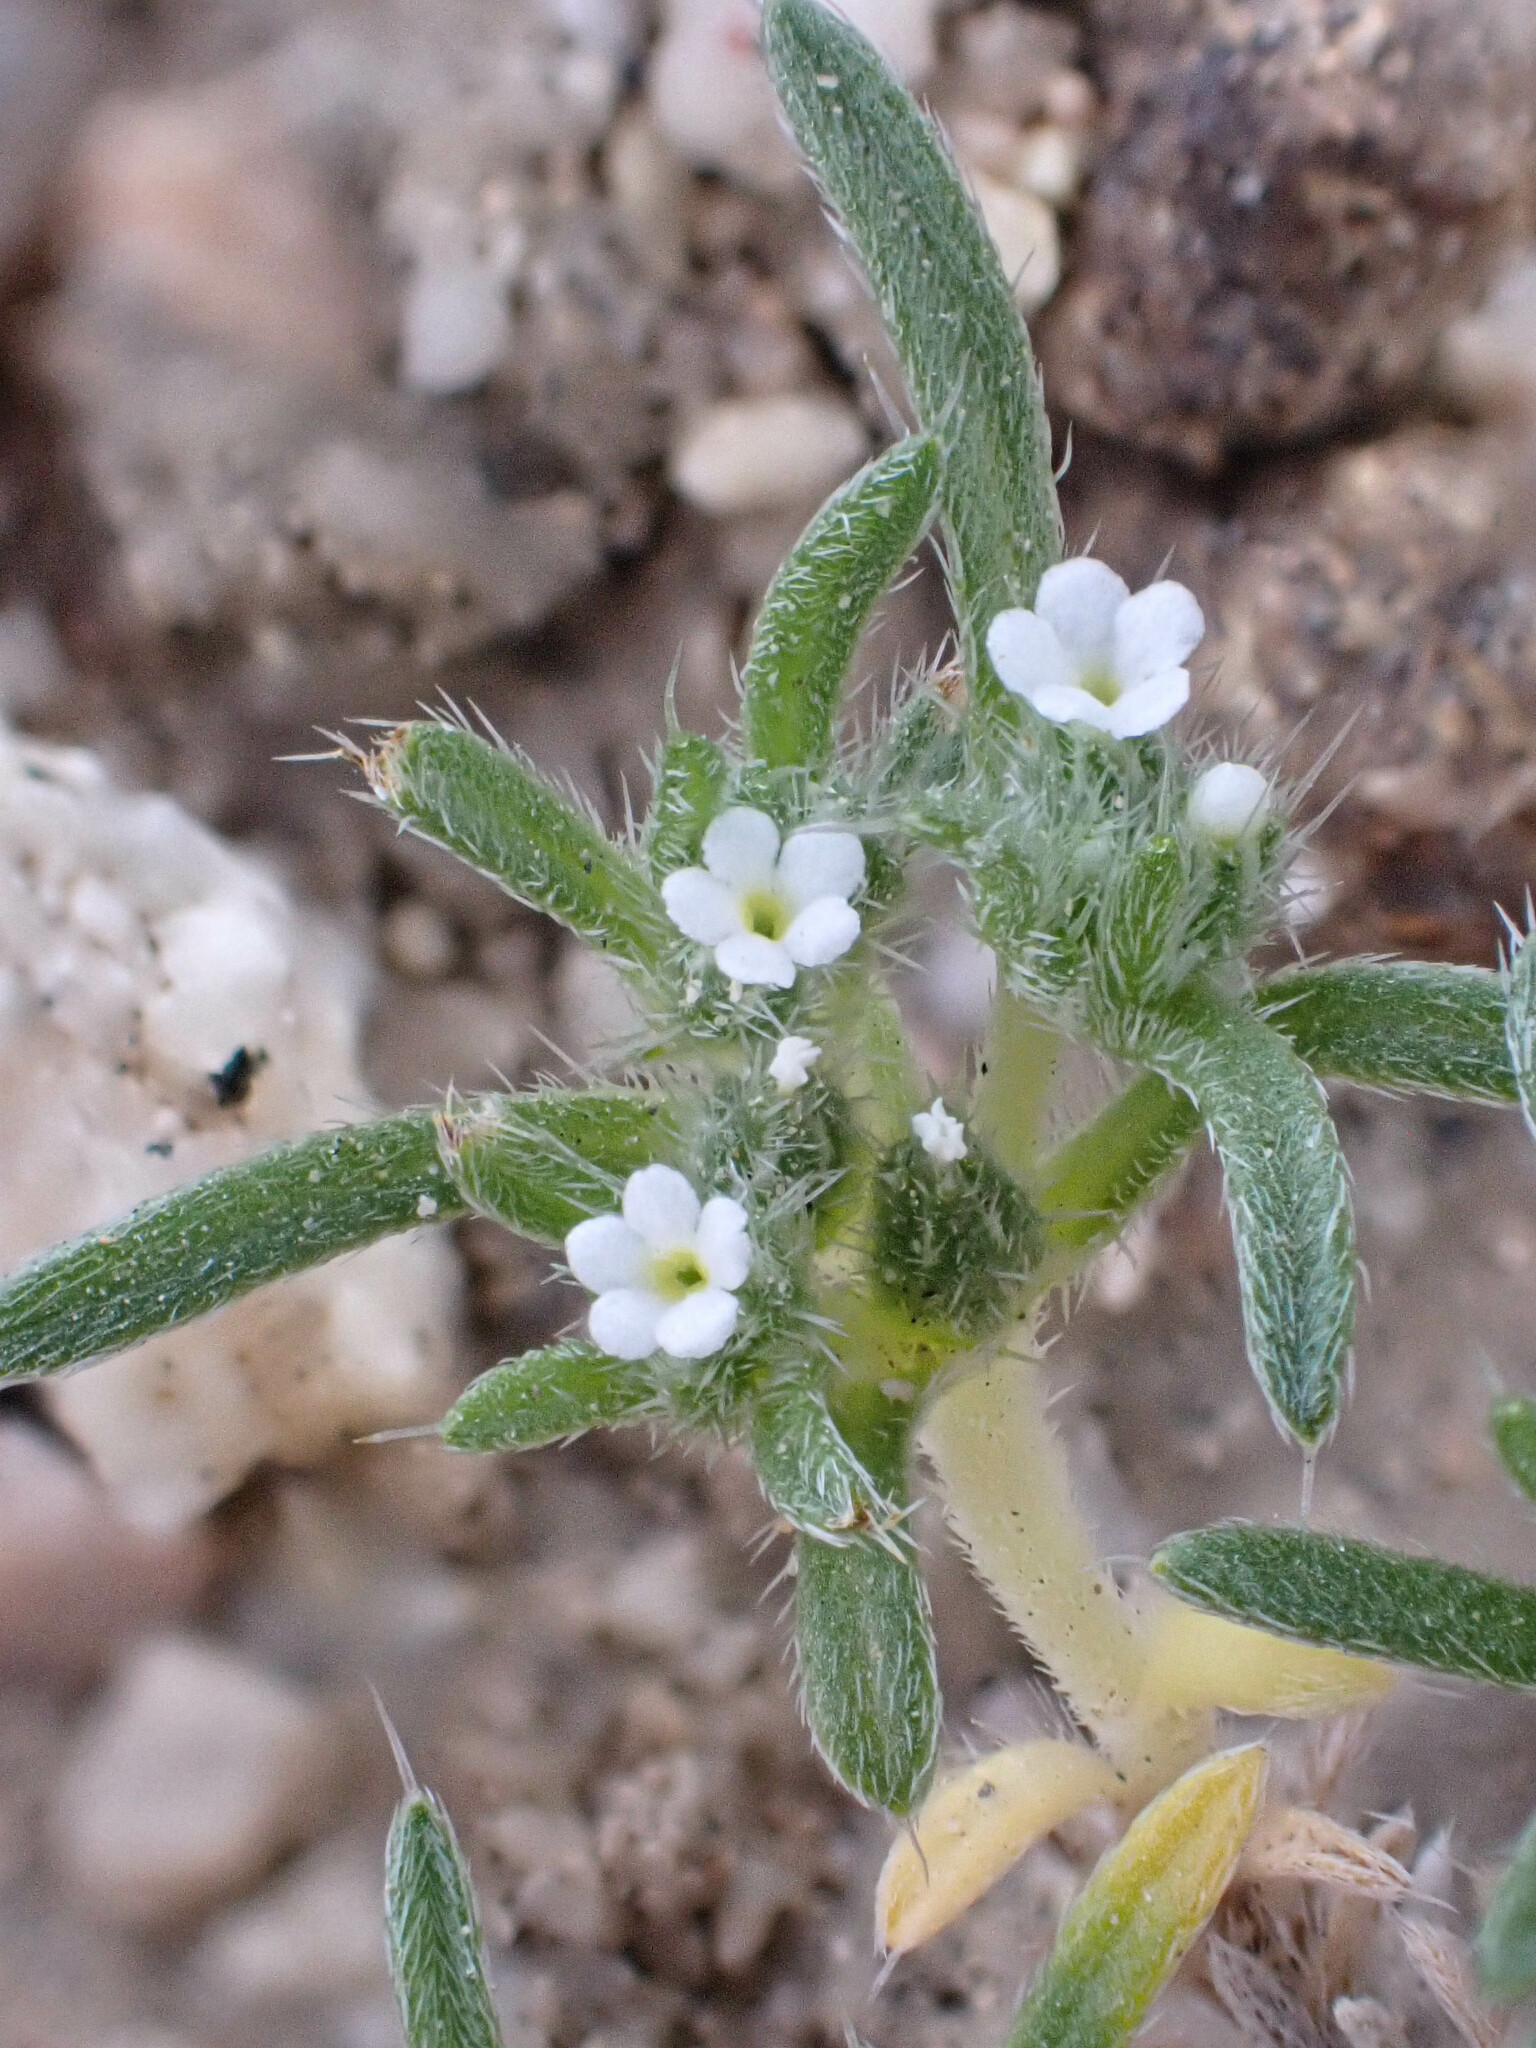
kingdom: Plantae
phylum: Tracheophyta
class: Magnoliopsida
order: Boraginales
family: Boraginaceae
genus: Greeneocharis
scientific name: Greeneocharis circumscissa
